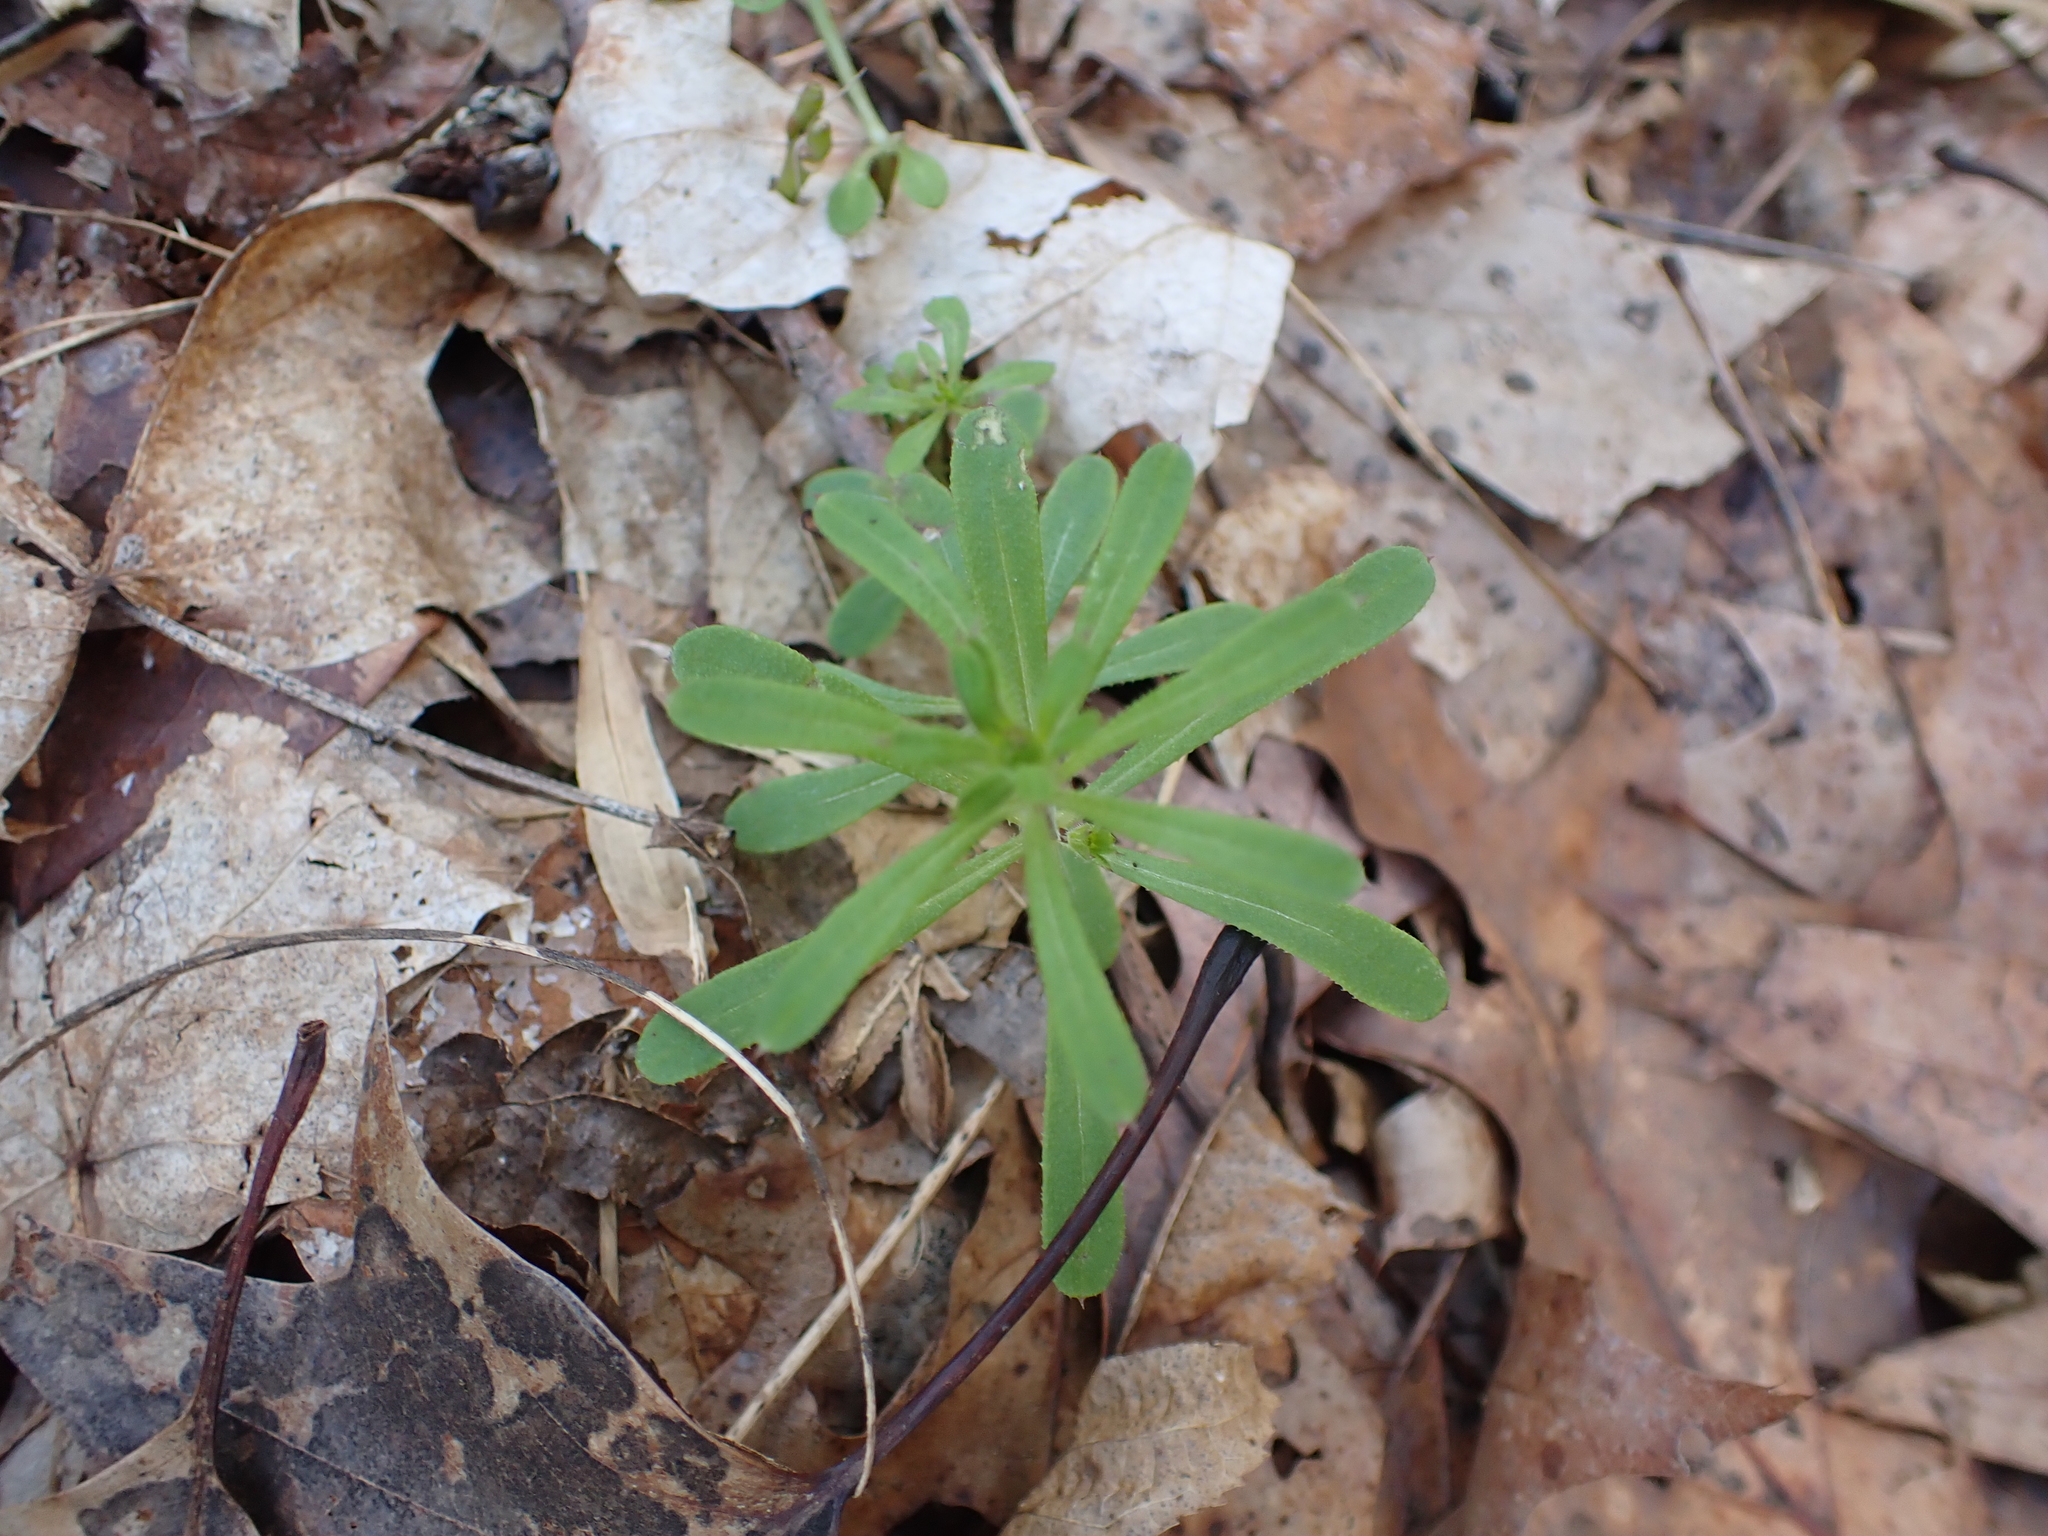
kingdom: Plantae
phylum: Tracheophyta
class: Magnoliopsida
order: Gentianales
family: Rubiaceae
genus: Galium
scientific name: Galium aparine
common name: Cleavers
